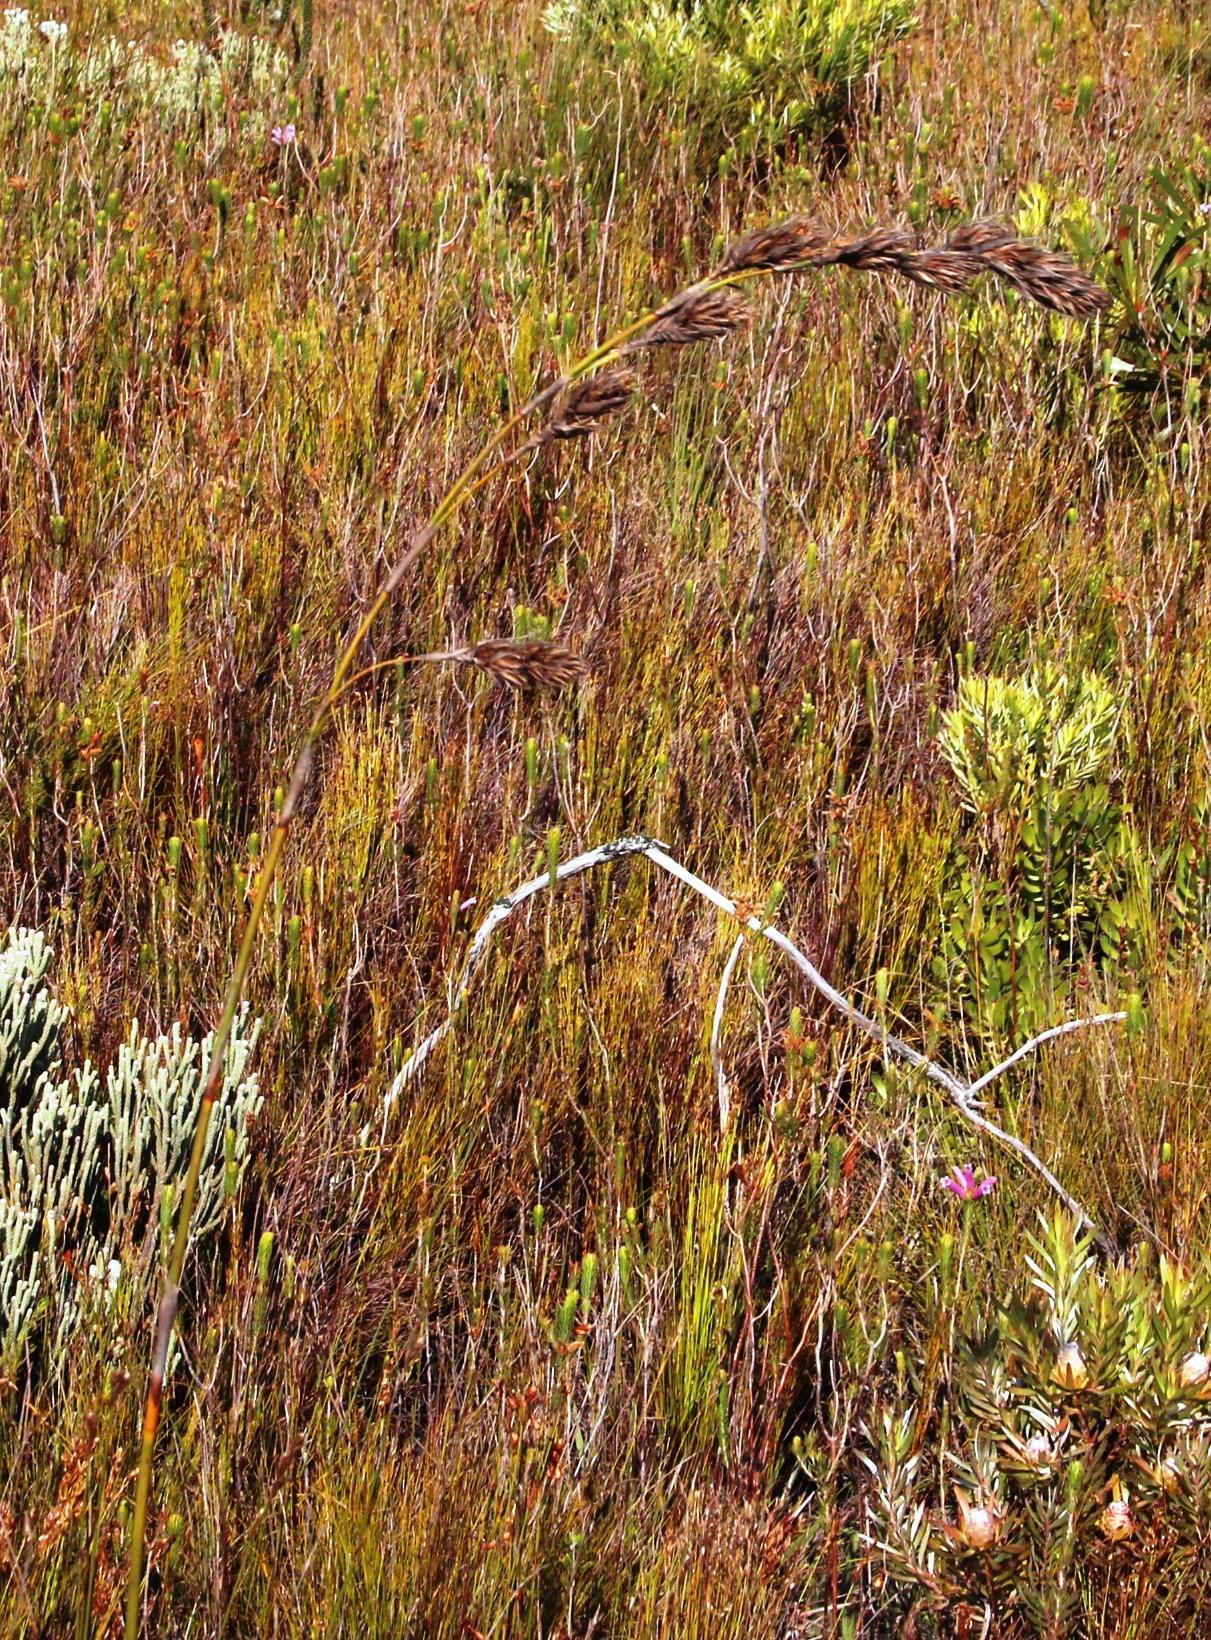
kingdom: Plantae
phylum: Tracheophyta
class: Liliopsida
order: Poales
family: Cyperaceae
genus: Tetraria
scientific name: Tetraria bromoides
